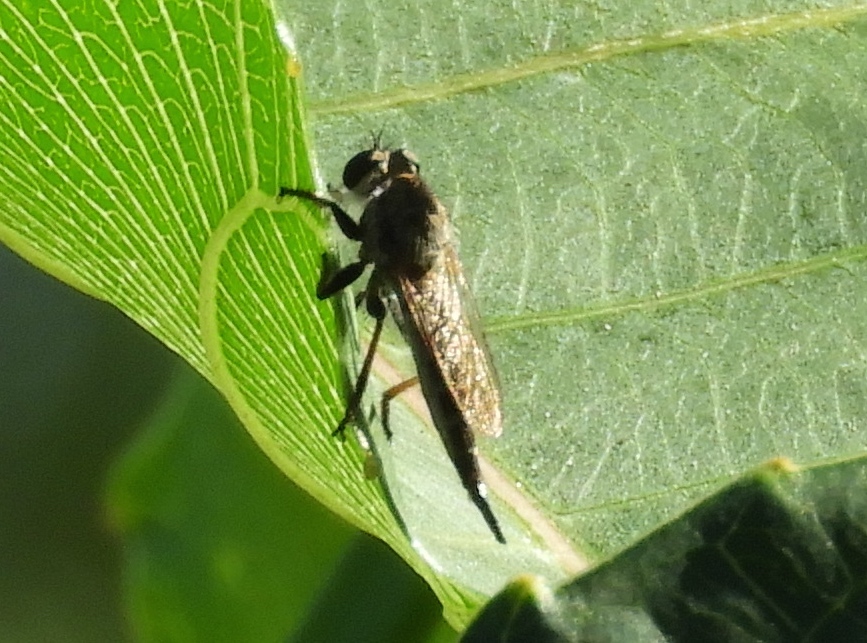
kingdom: Animalia
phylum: Arthropoda
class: Insecta
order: Diptera
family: Asilidae
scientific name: Asilidae
